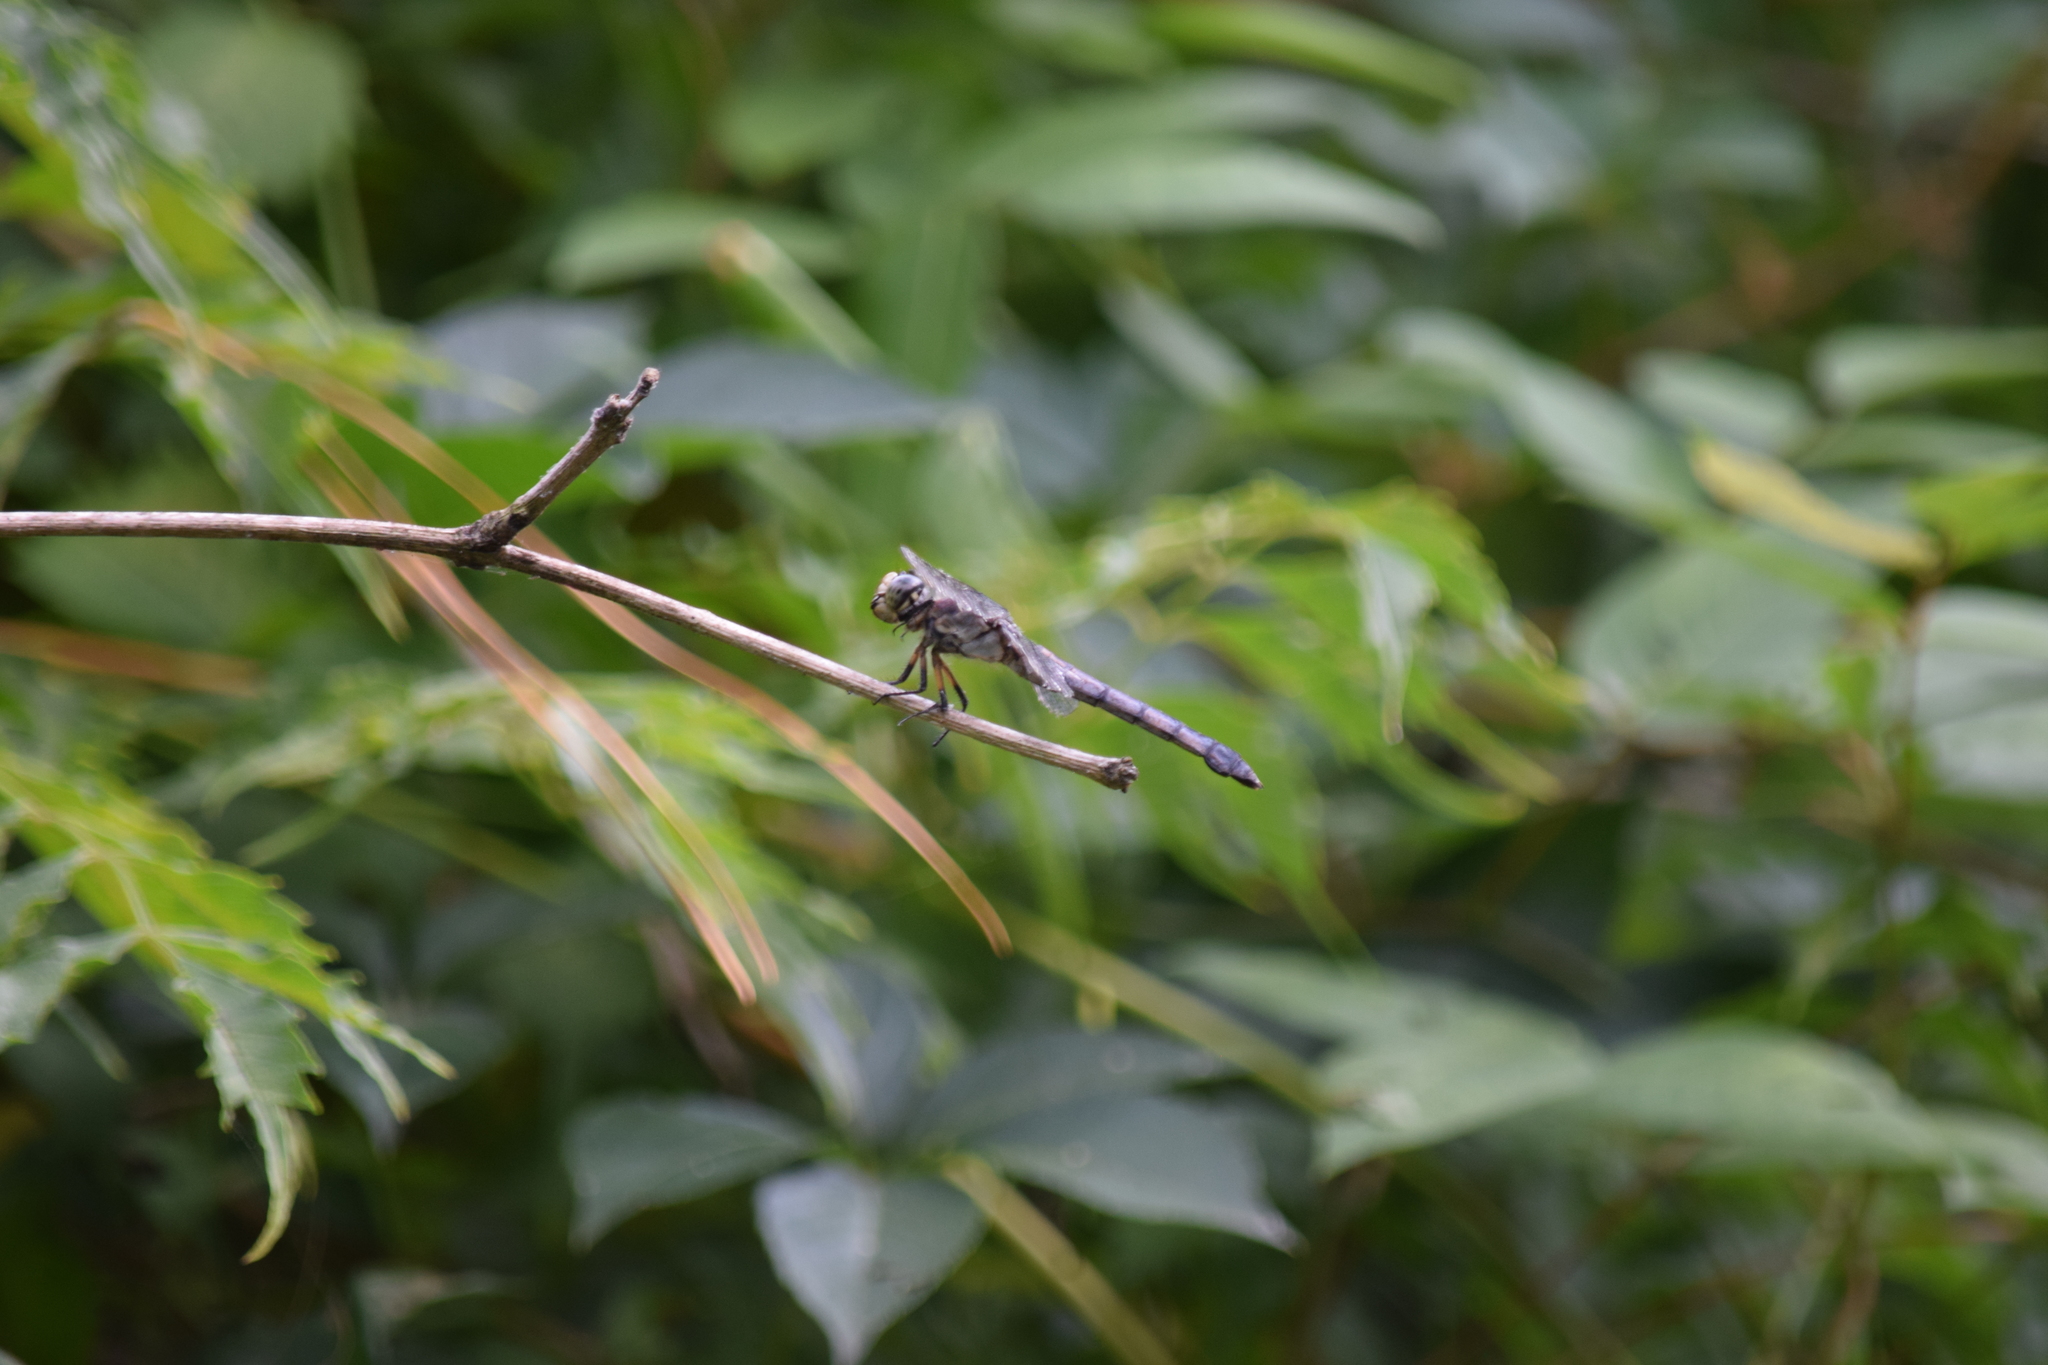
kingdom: Animalia
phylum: Arthropoda
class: Insecta
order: Odonata
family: Libellulidae
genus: Libellula
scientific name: Libellula vibrans
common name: Great blue skimmer
